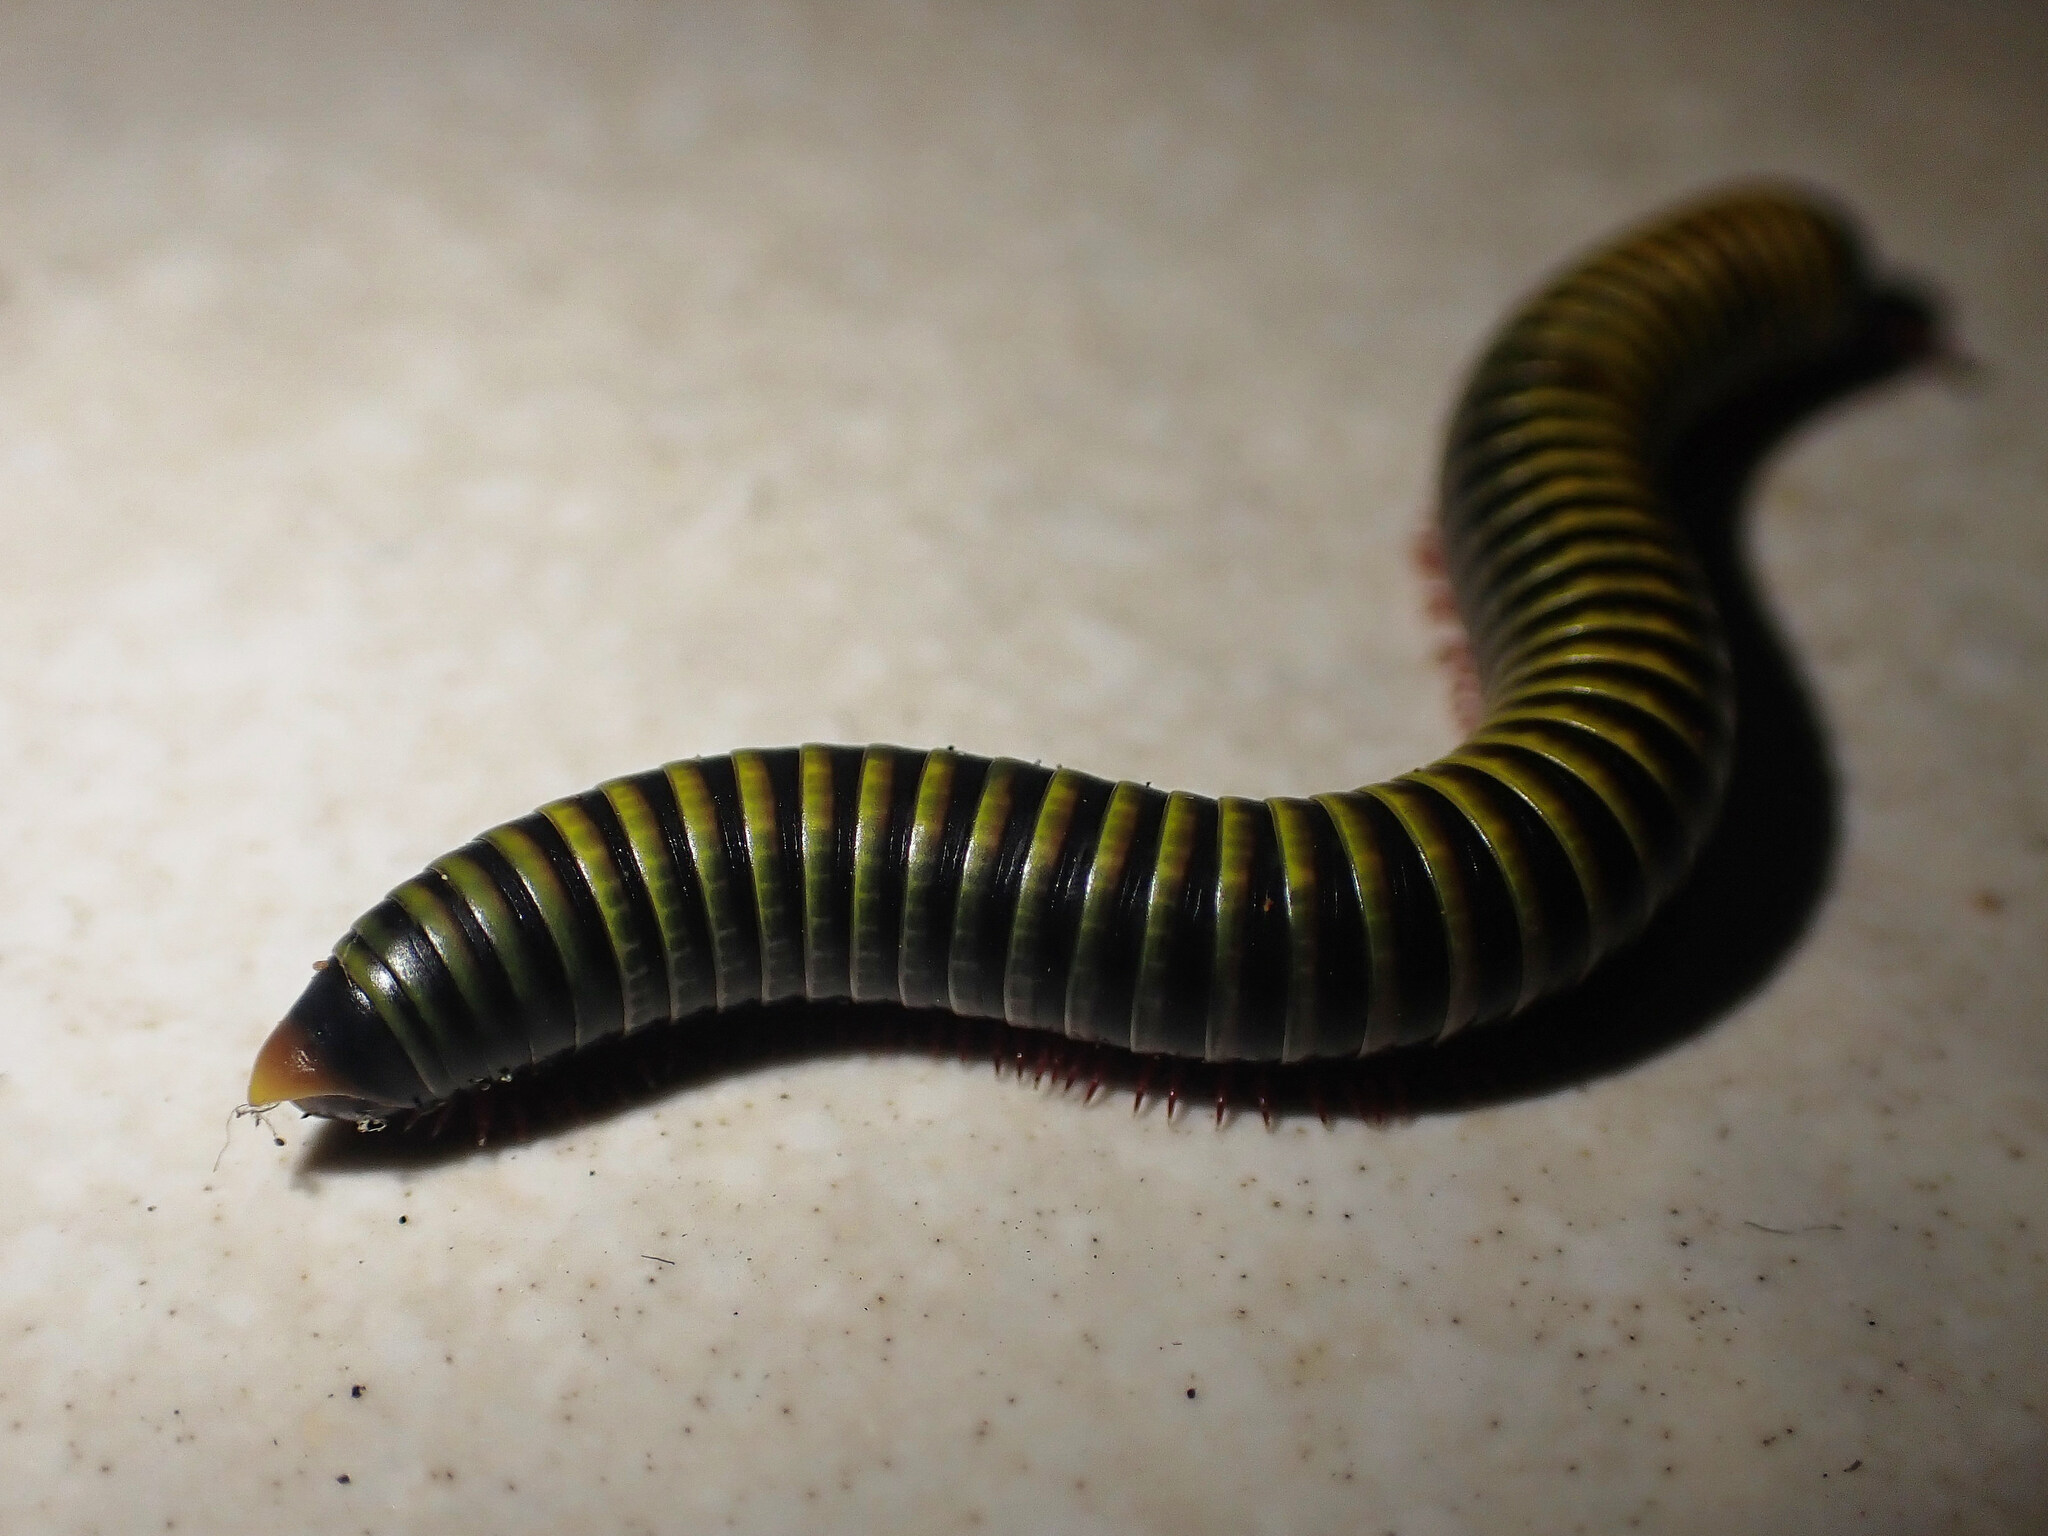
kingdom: Animalia
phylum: Arthropoda
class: Diplopoda
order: Spirobolida
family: Rhinocricidae
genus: Anadenobolus
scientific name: Anadenobolus monilicornis
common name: Caribbean millipede
